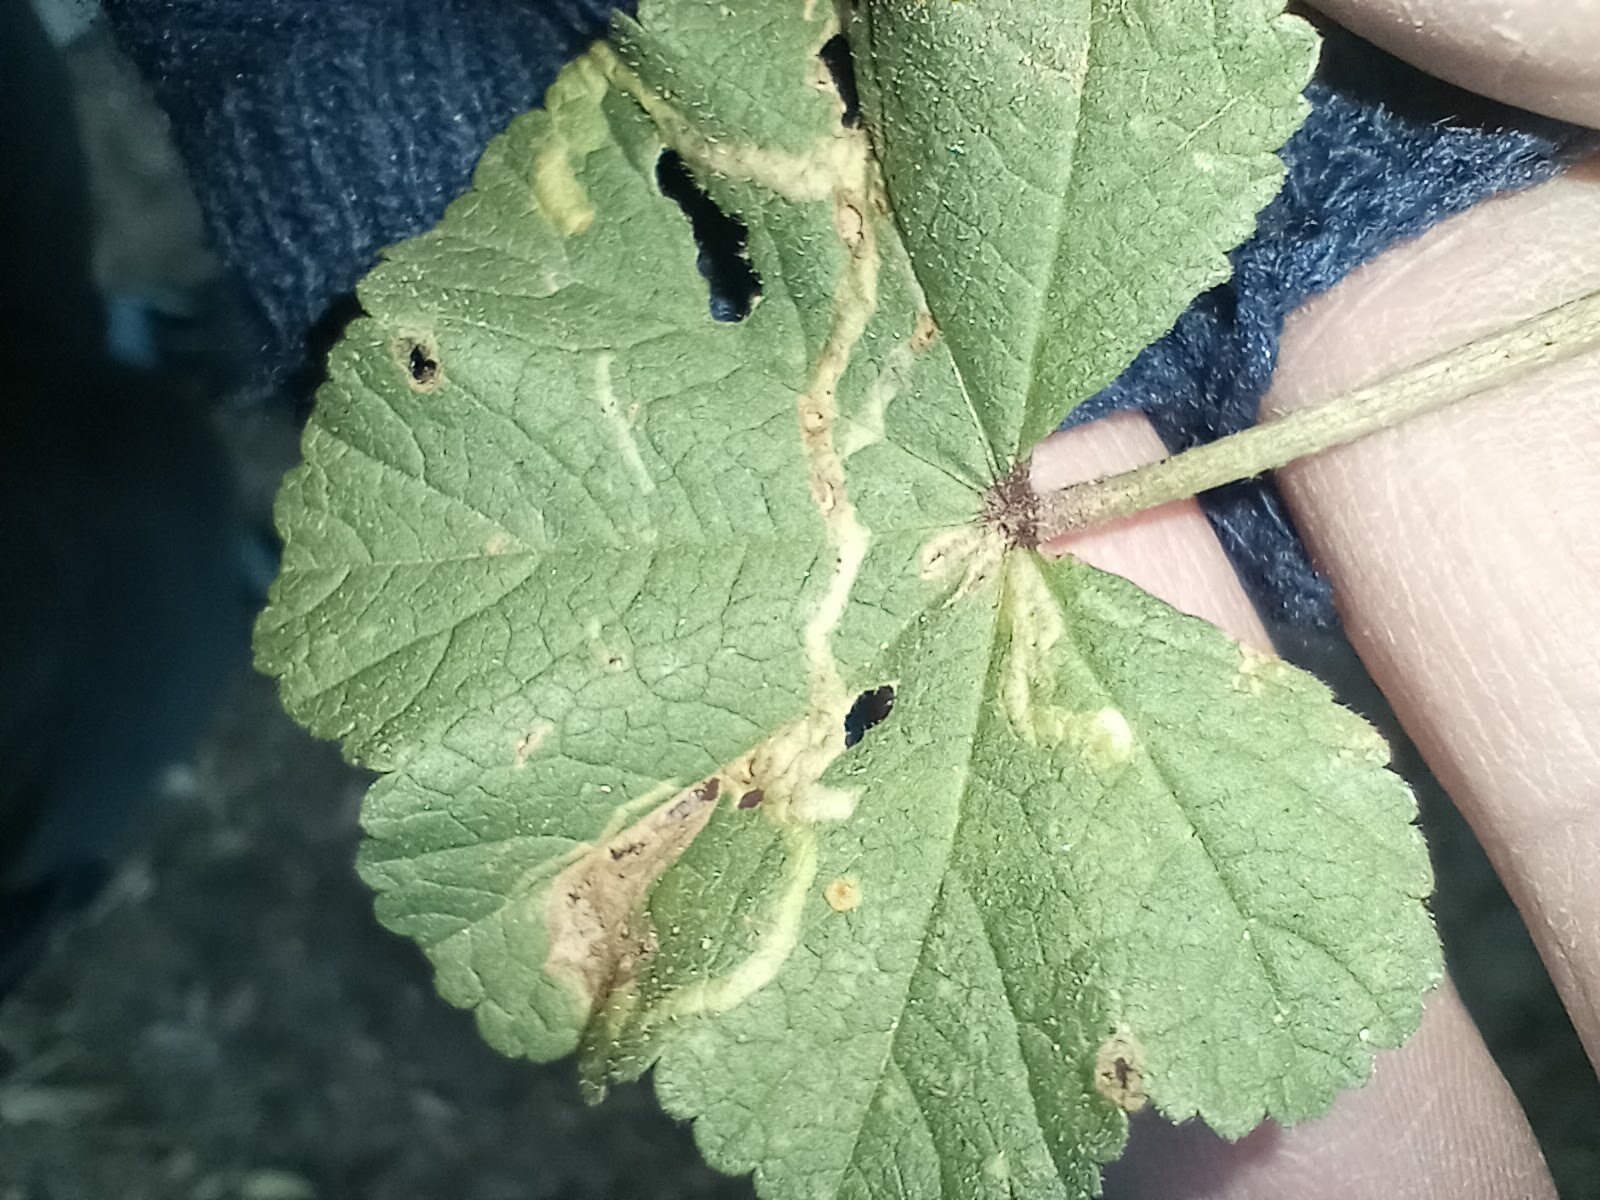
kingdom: Plantae
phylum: Tracheophyta
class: Magnoliopsida
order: Malvales
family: Malvaceae
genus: Malva
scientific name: Malva
